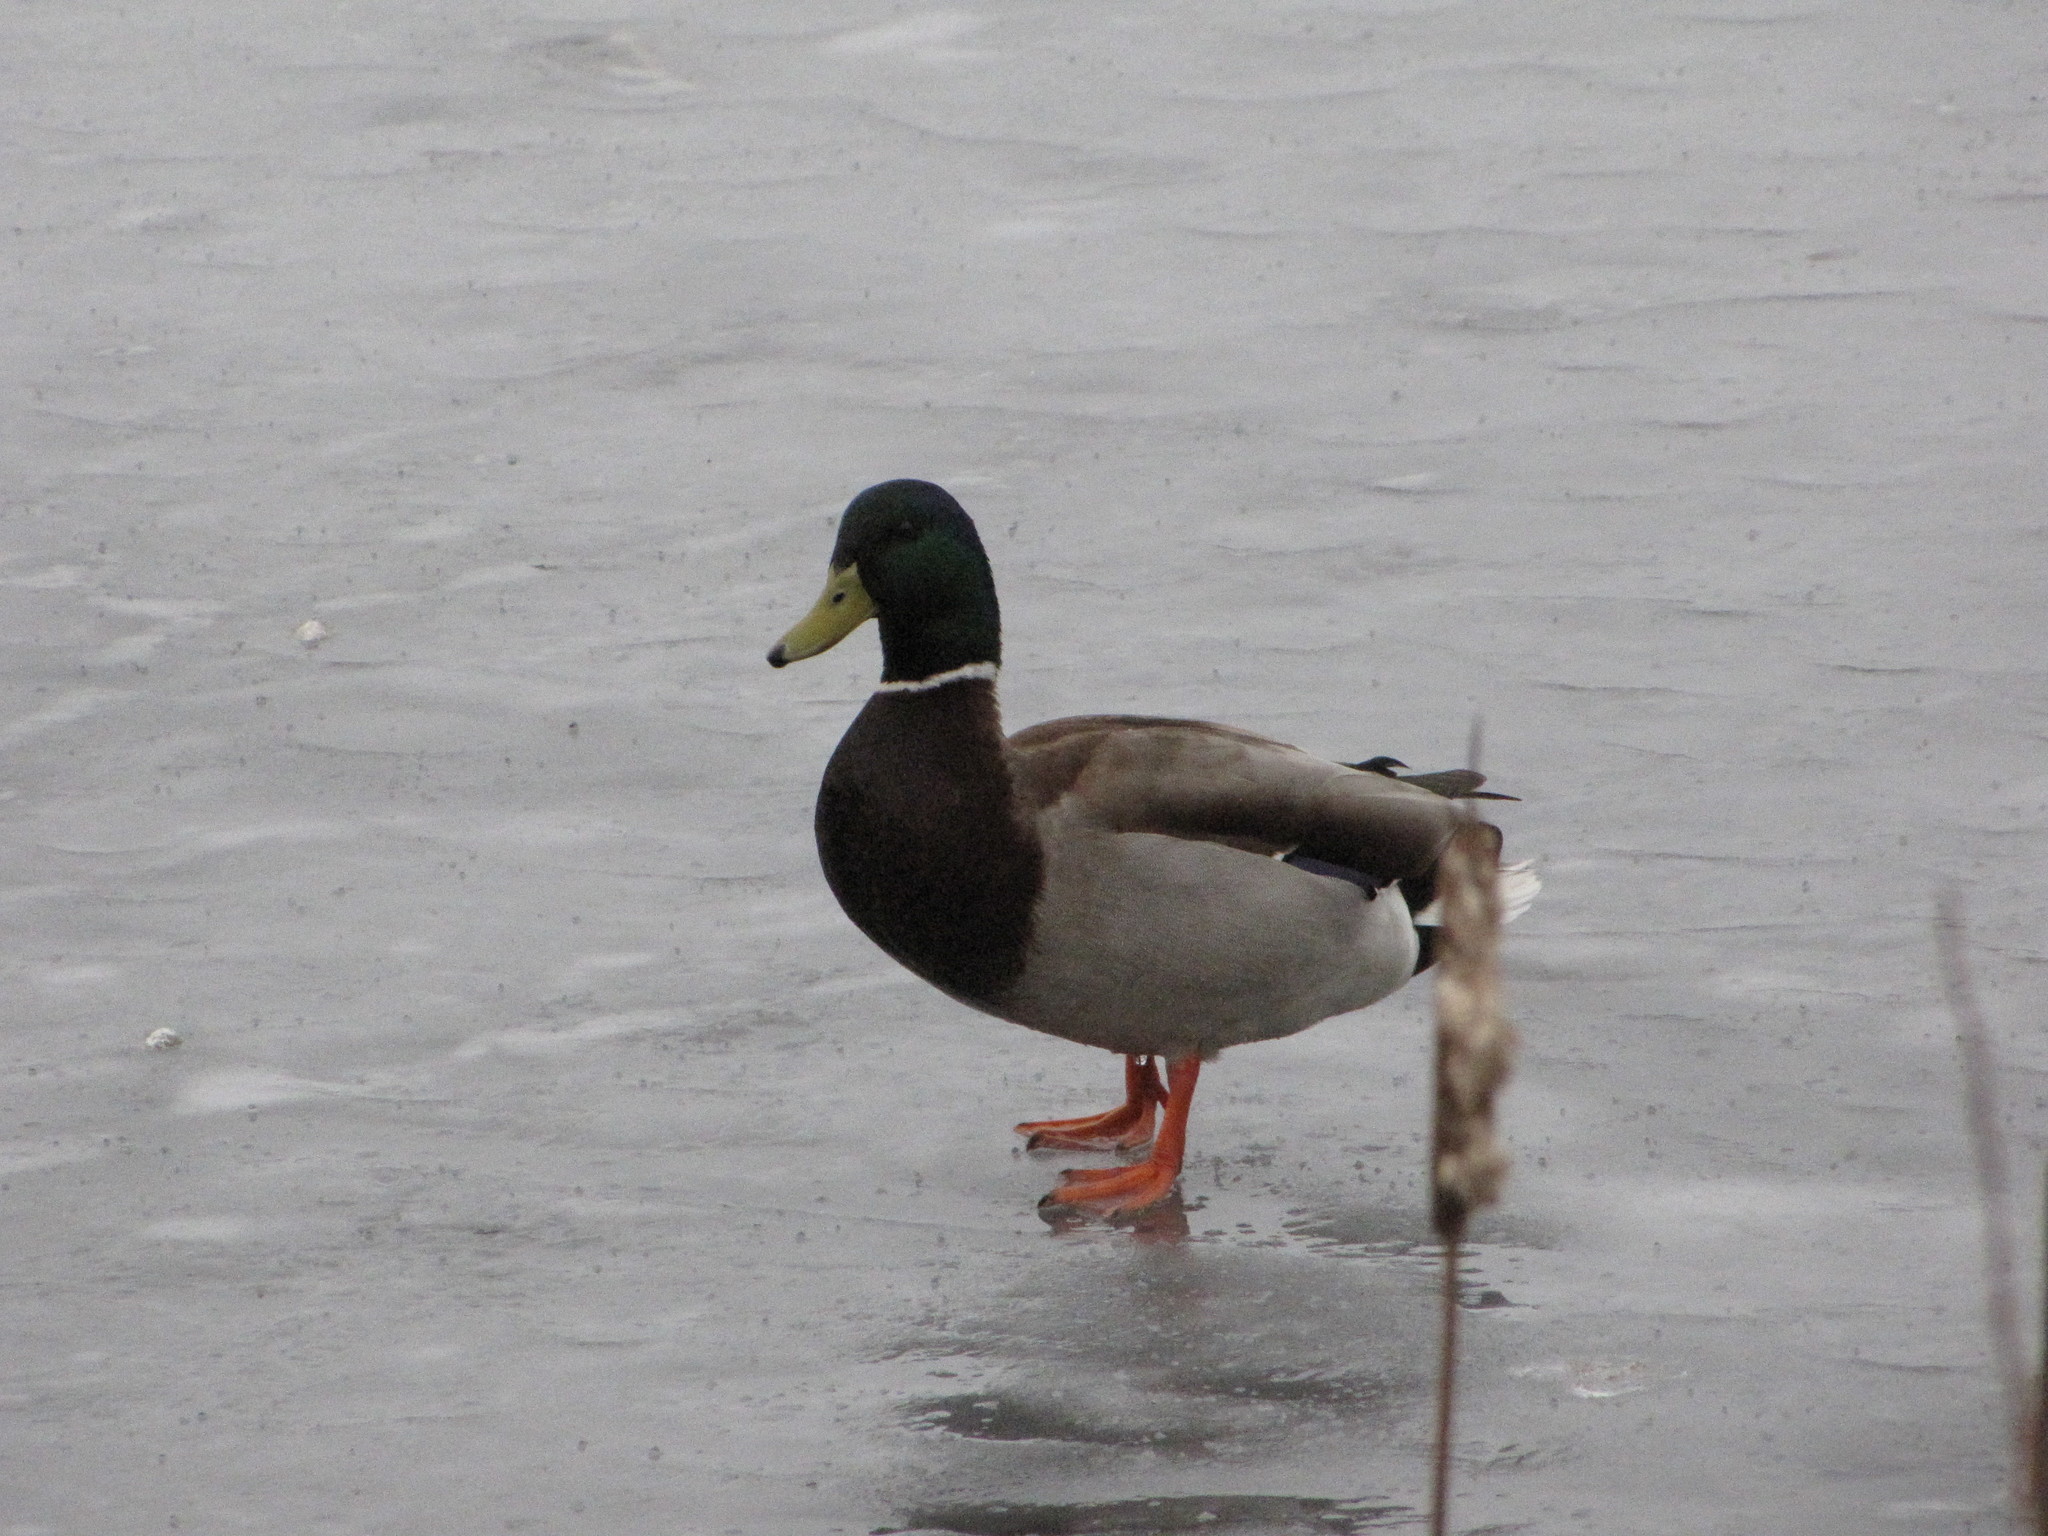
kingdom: Animalia
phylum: Chordata
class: Aves
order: Anseriformes
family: Anatidae
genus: Anas
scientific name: Anas platyrhynchos
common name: Mallard
